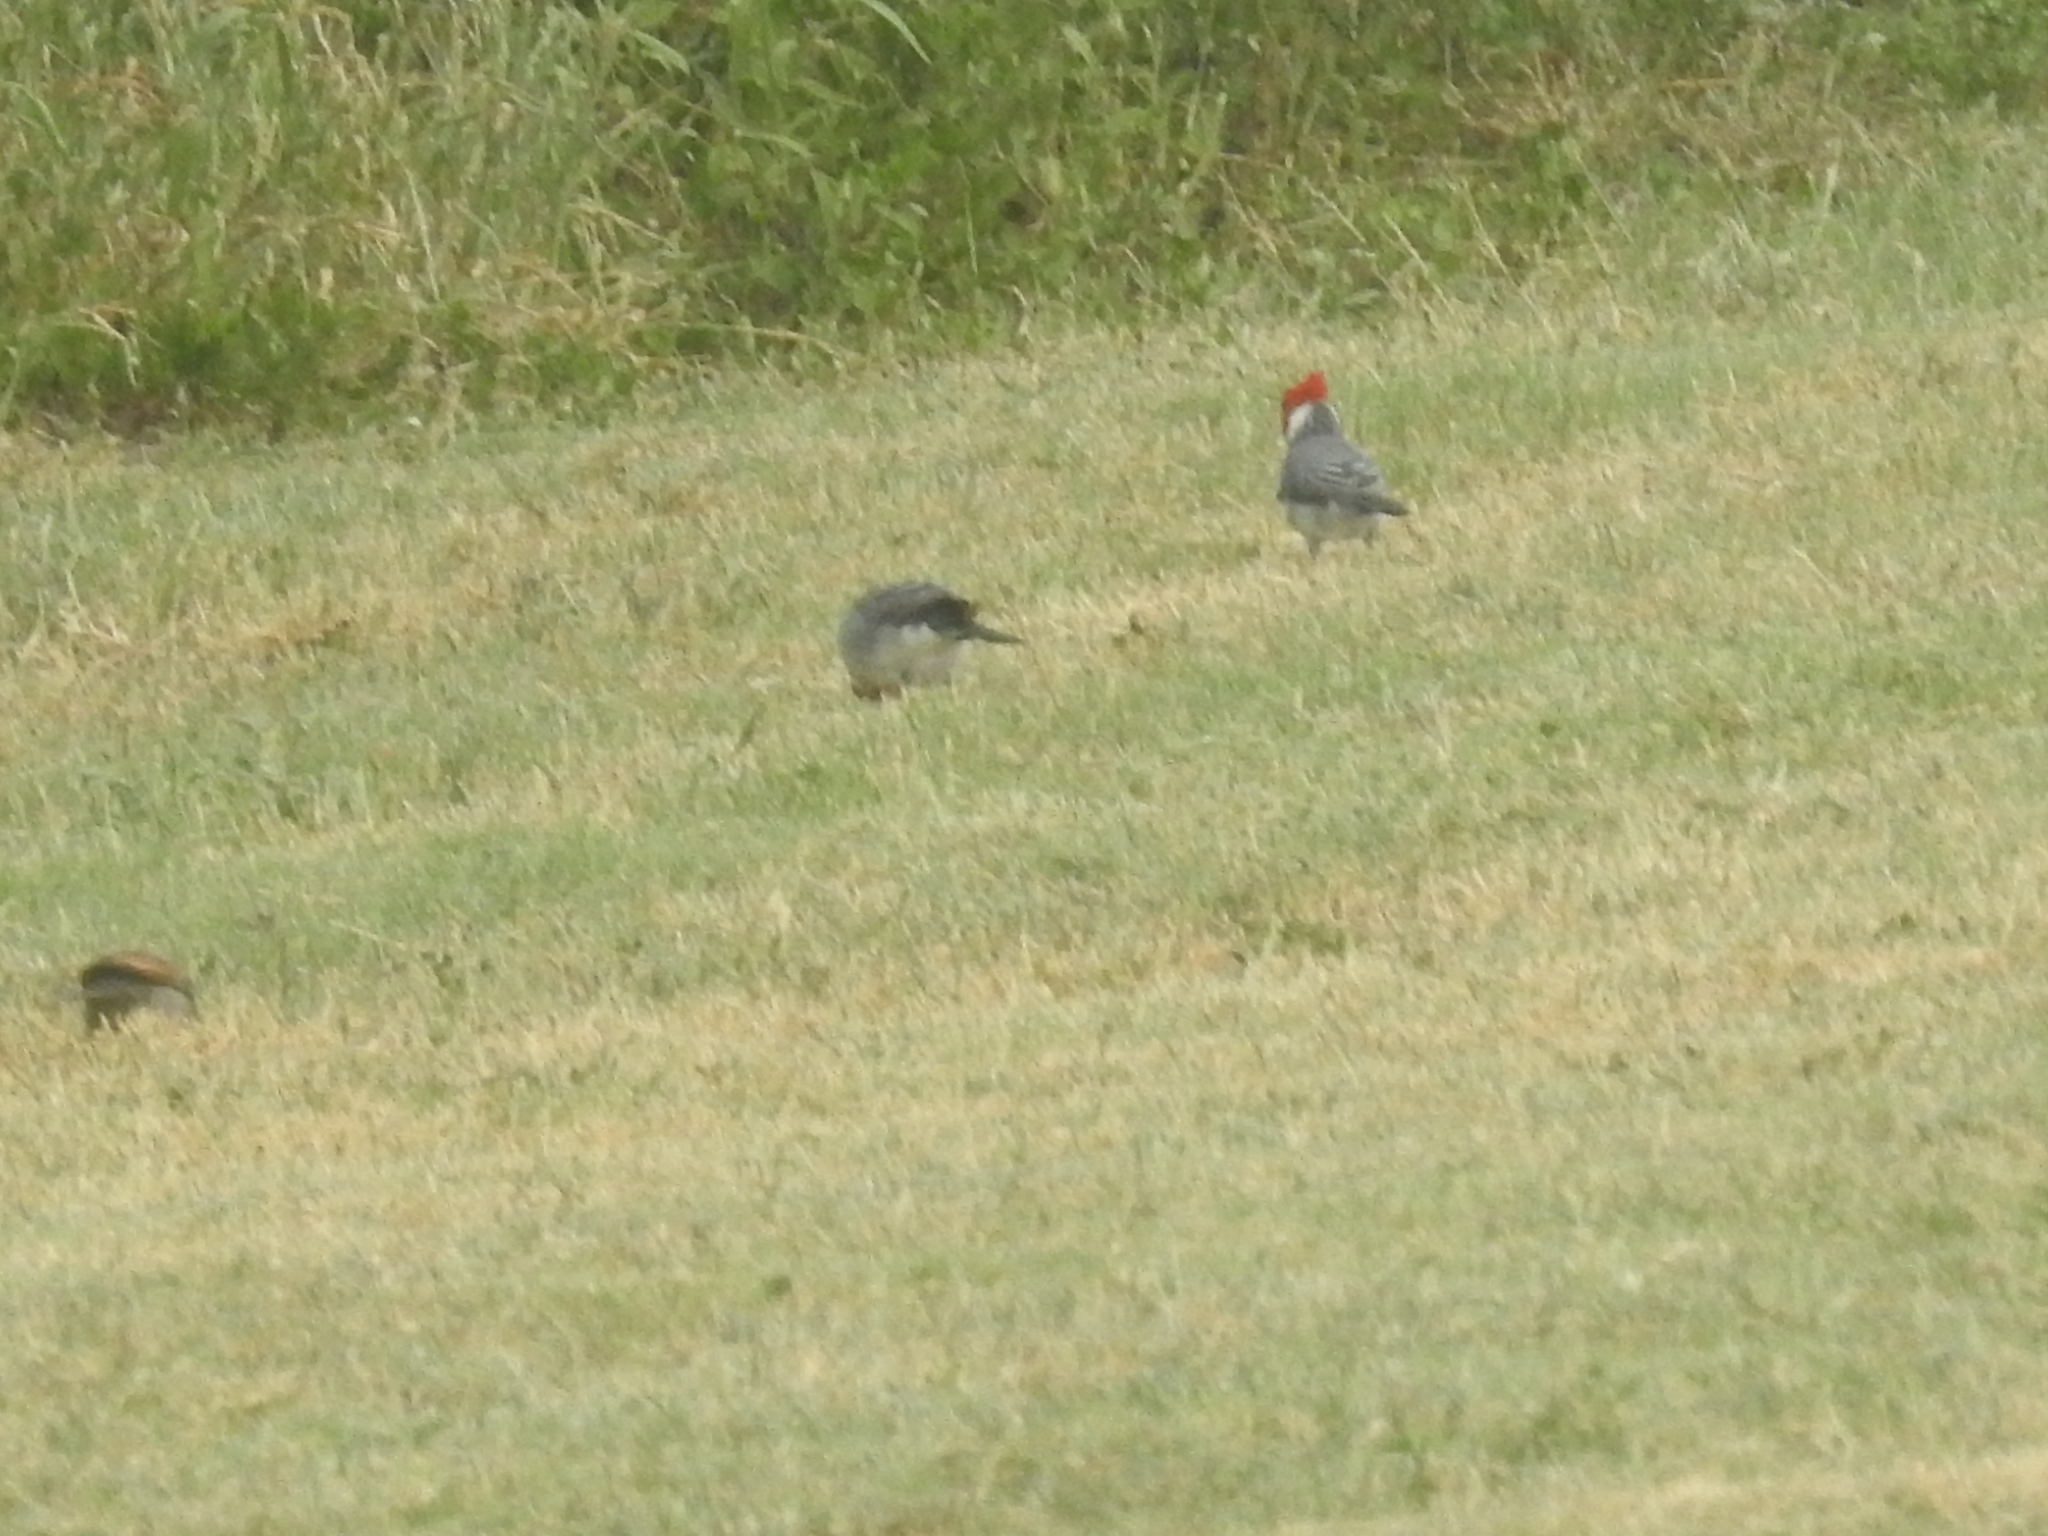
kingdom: Animalia
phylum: Chordata
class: Aves
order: Passeriformes
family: Thraupidae
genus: Paroaria
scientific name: Paroaria coronata
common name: Red-crested cardinal
